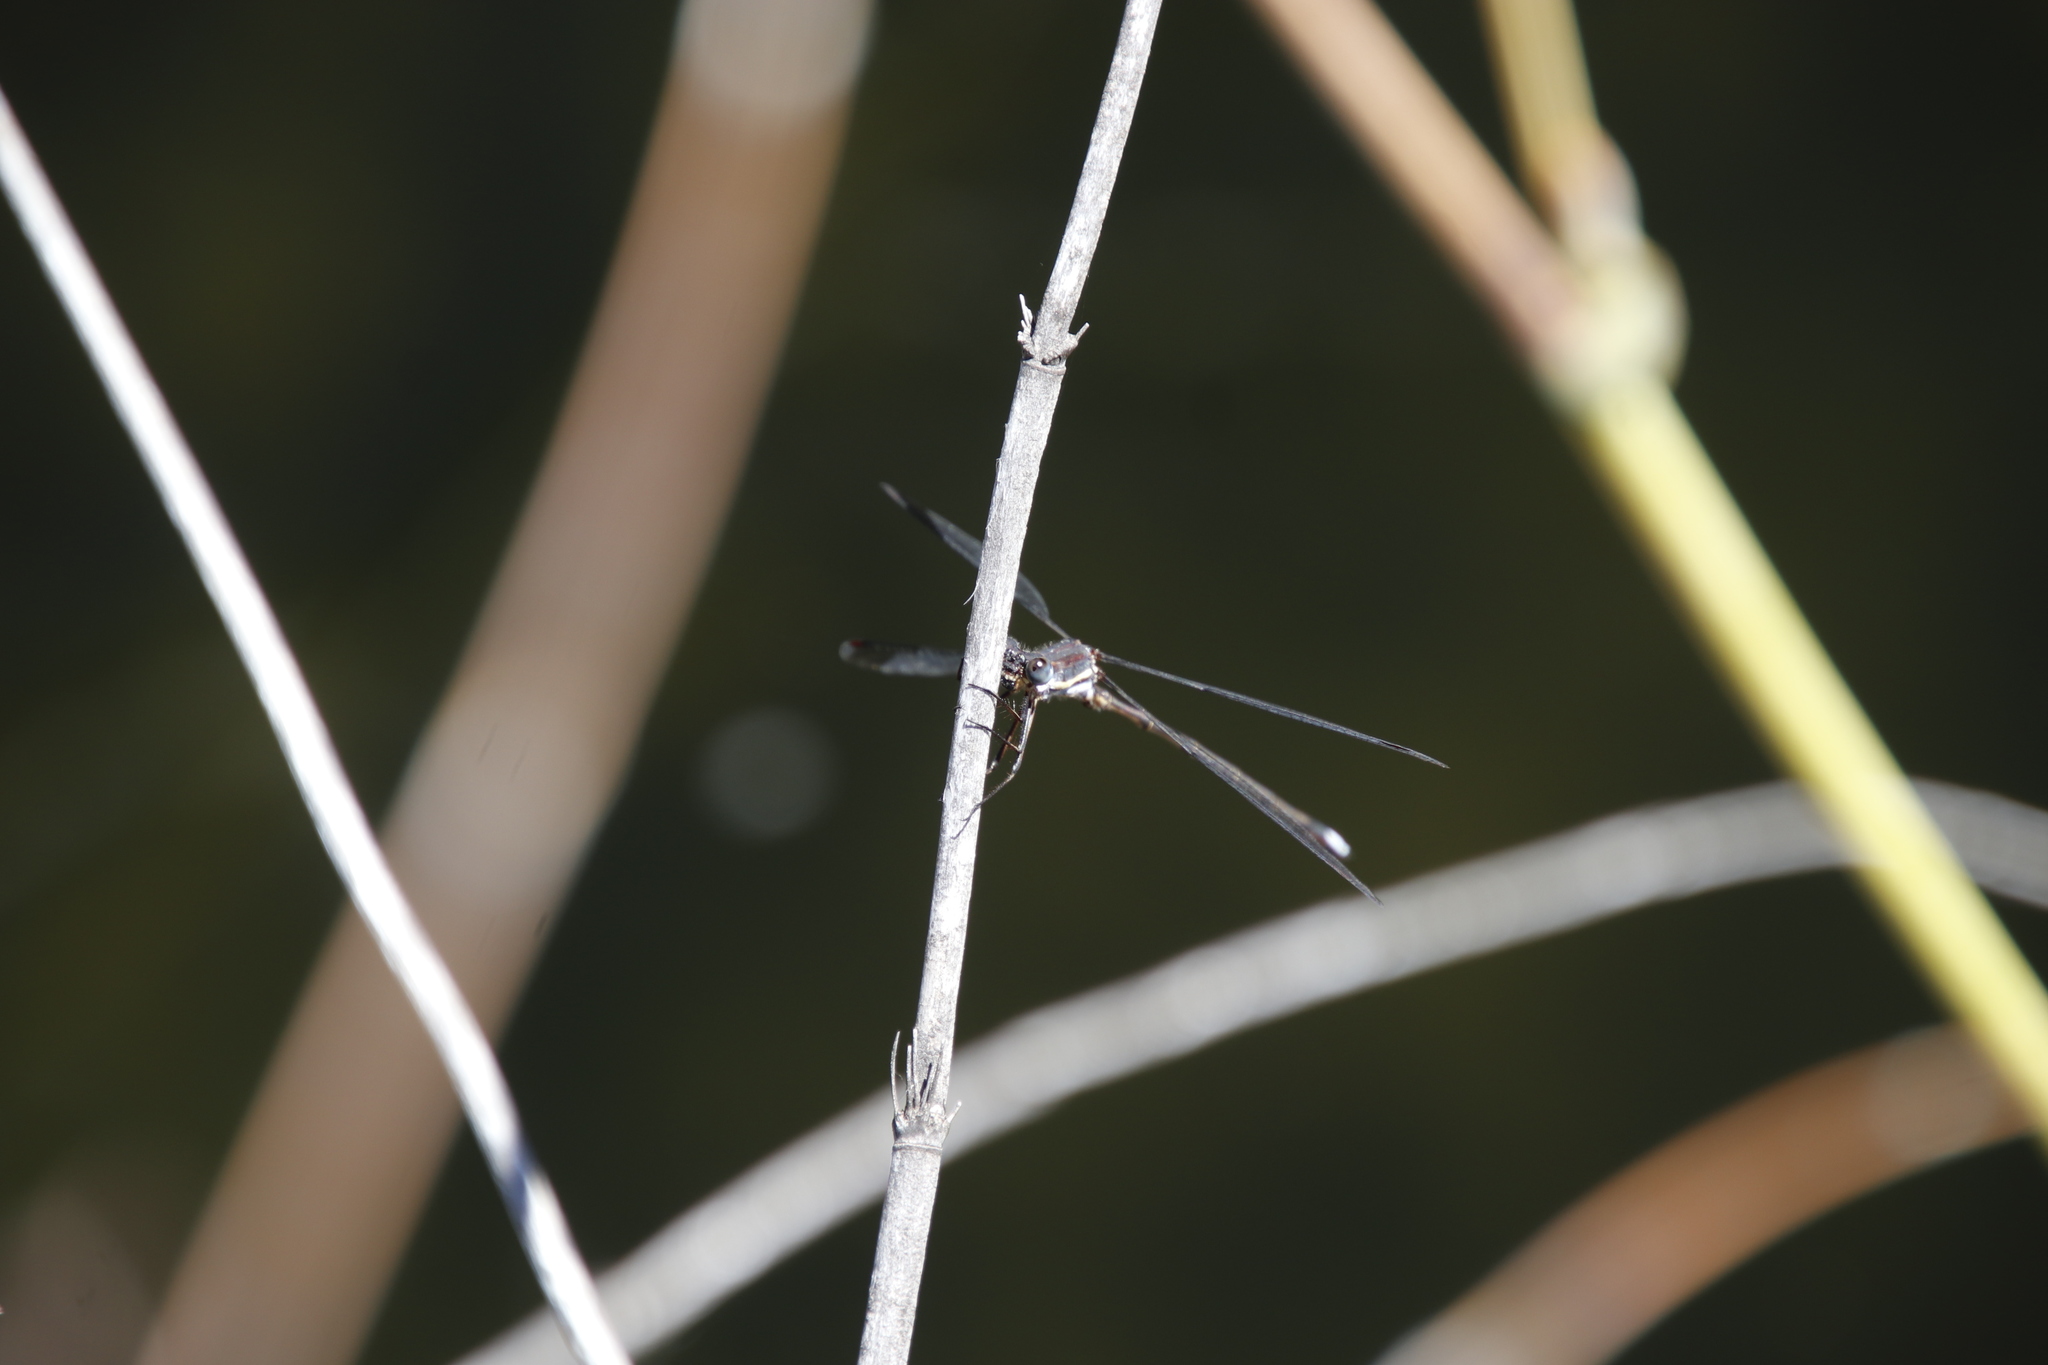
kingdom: Animalia
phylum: Arthropoda
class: Insecta
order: Odonata
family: Synlestidae
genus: Chlorolestes
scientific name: Chlorolestes fasciatus
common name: Mountain malachite
